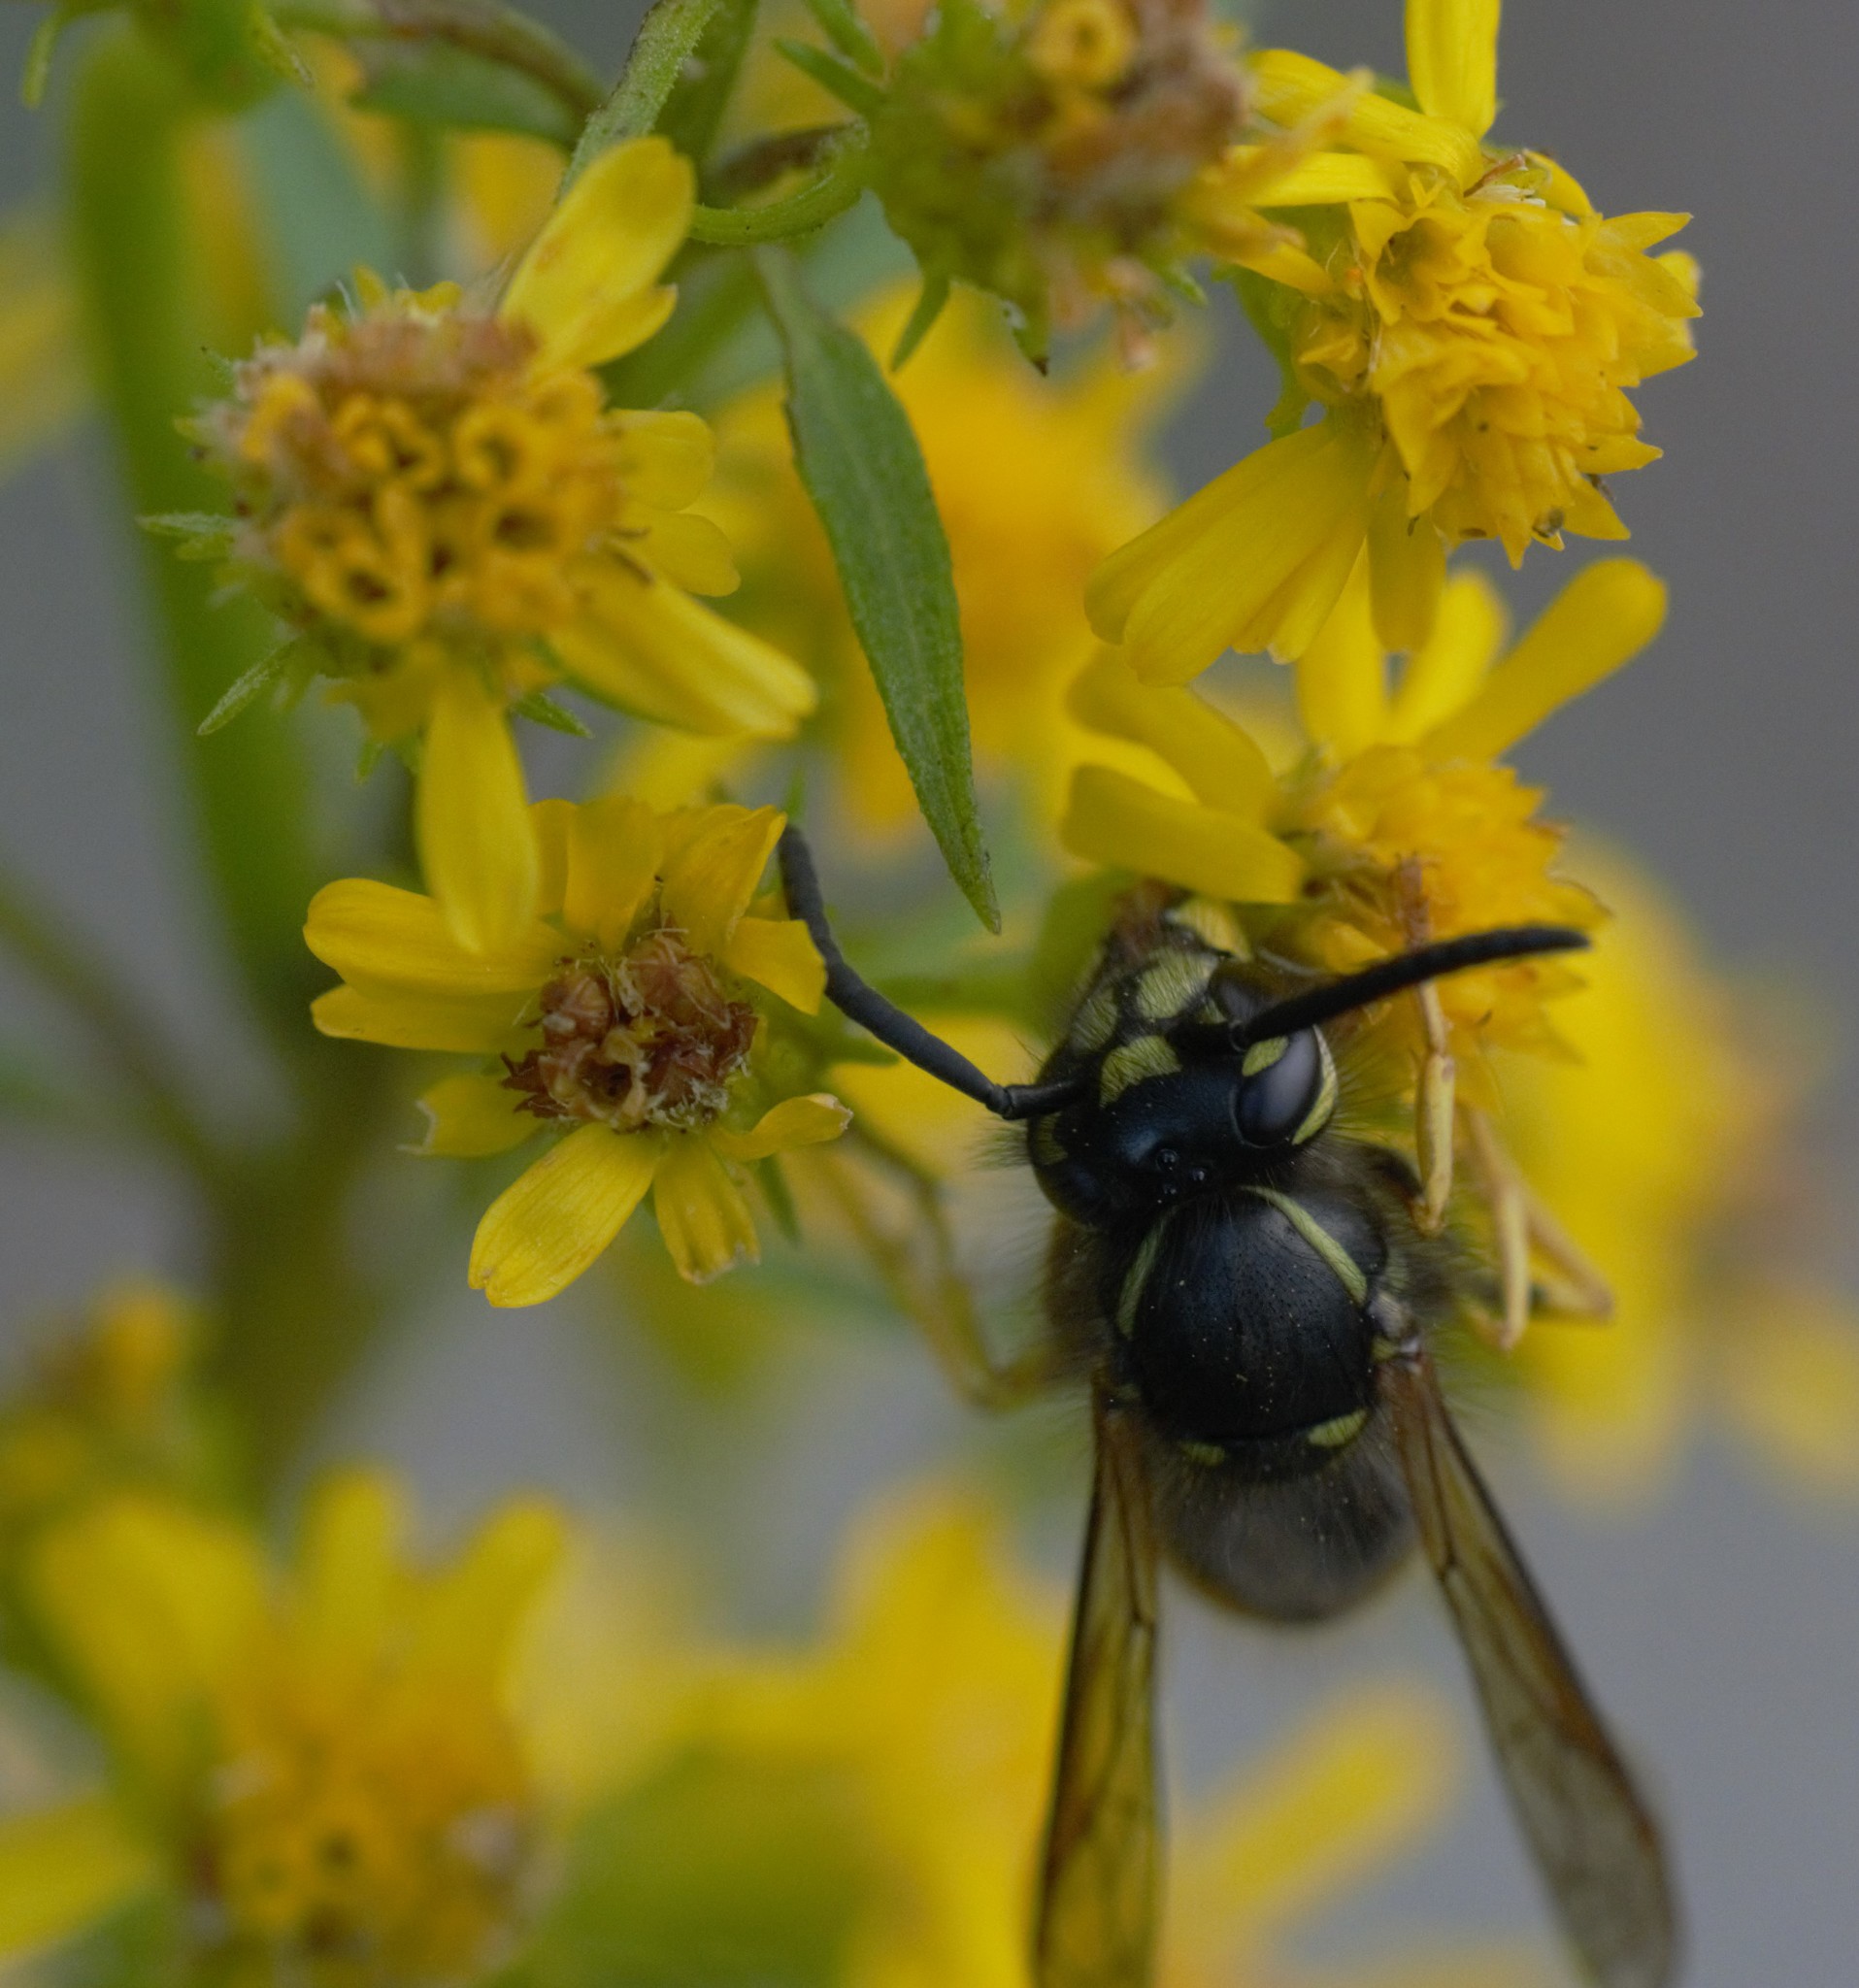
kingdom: Animalia
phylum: Arthropoda
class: Insecta
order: Hymenoptera
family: Vespidae
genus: Vespula
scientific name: Vespula alascensis
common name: Alaska yellowjacket
